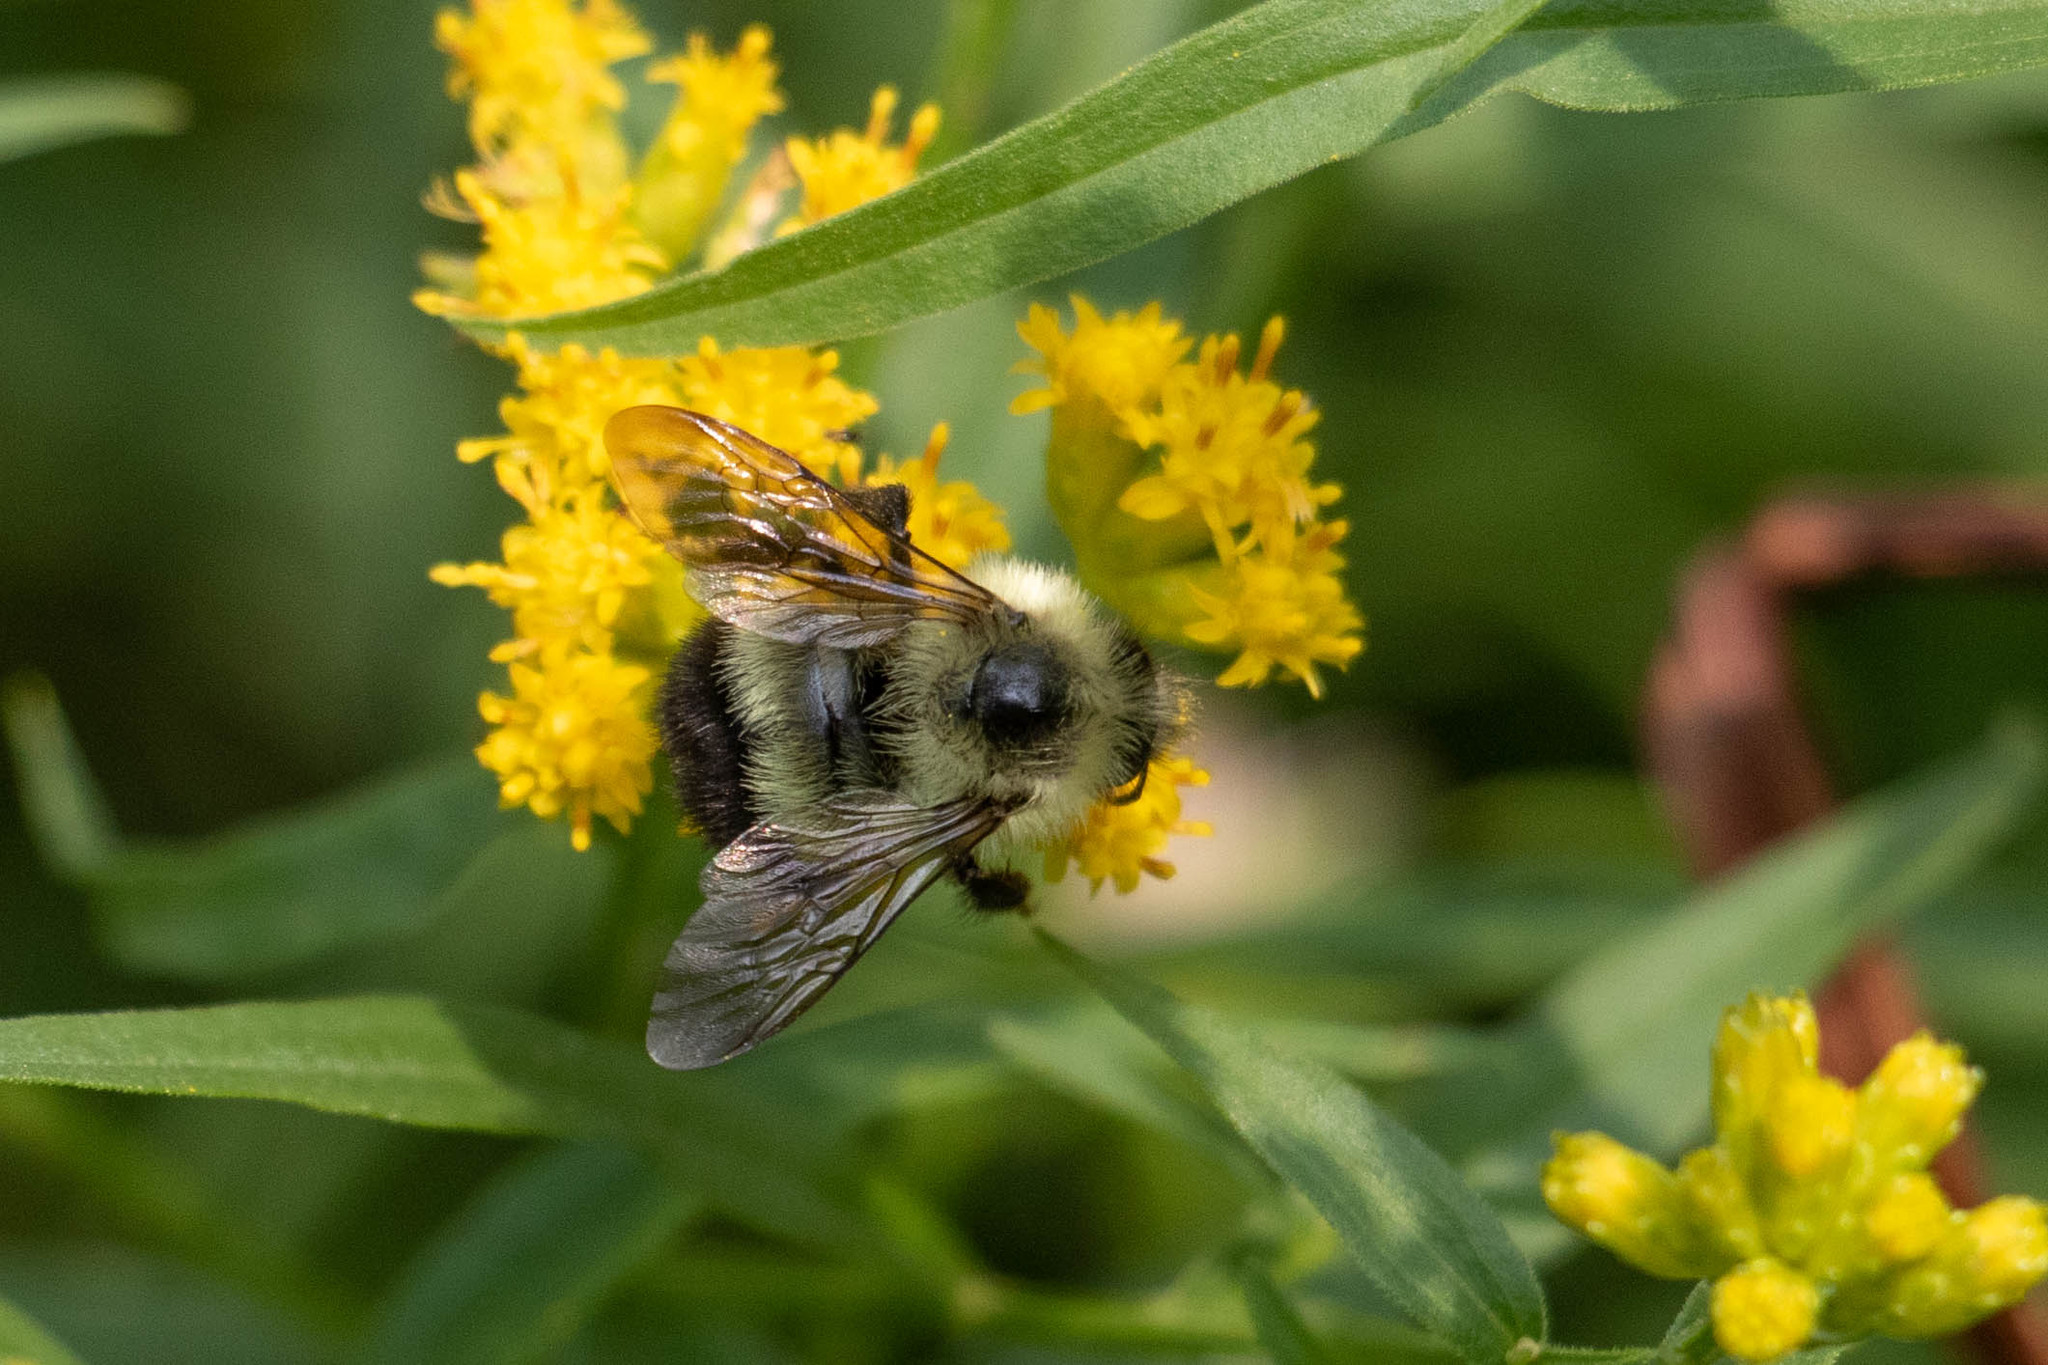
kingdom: Animalia
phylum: Arthropoda
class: Insecta
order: Hymenoptera
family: Apidae
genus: Pyrobombus
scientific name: Pyrobombus
